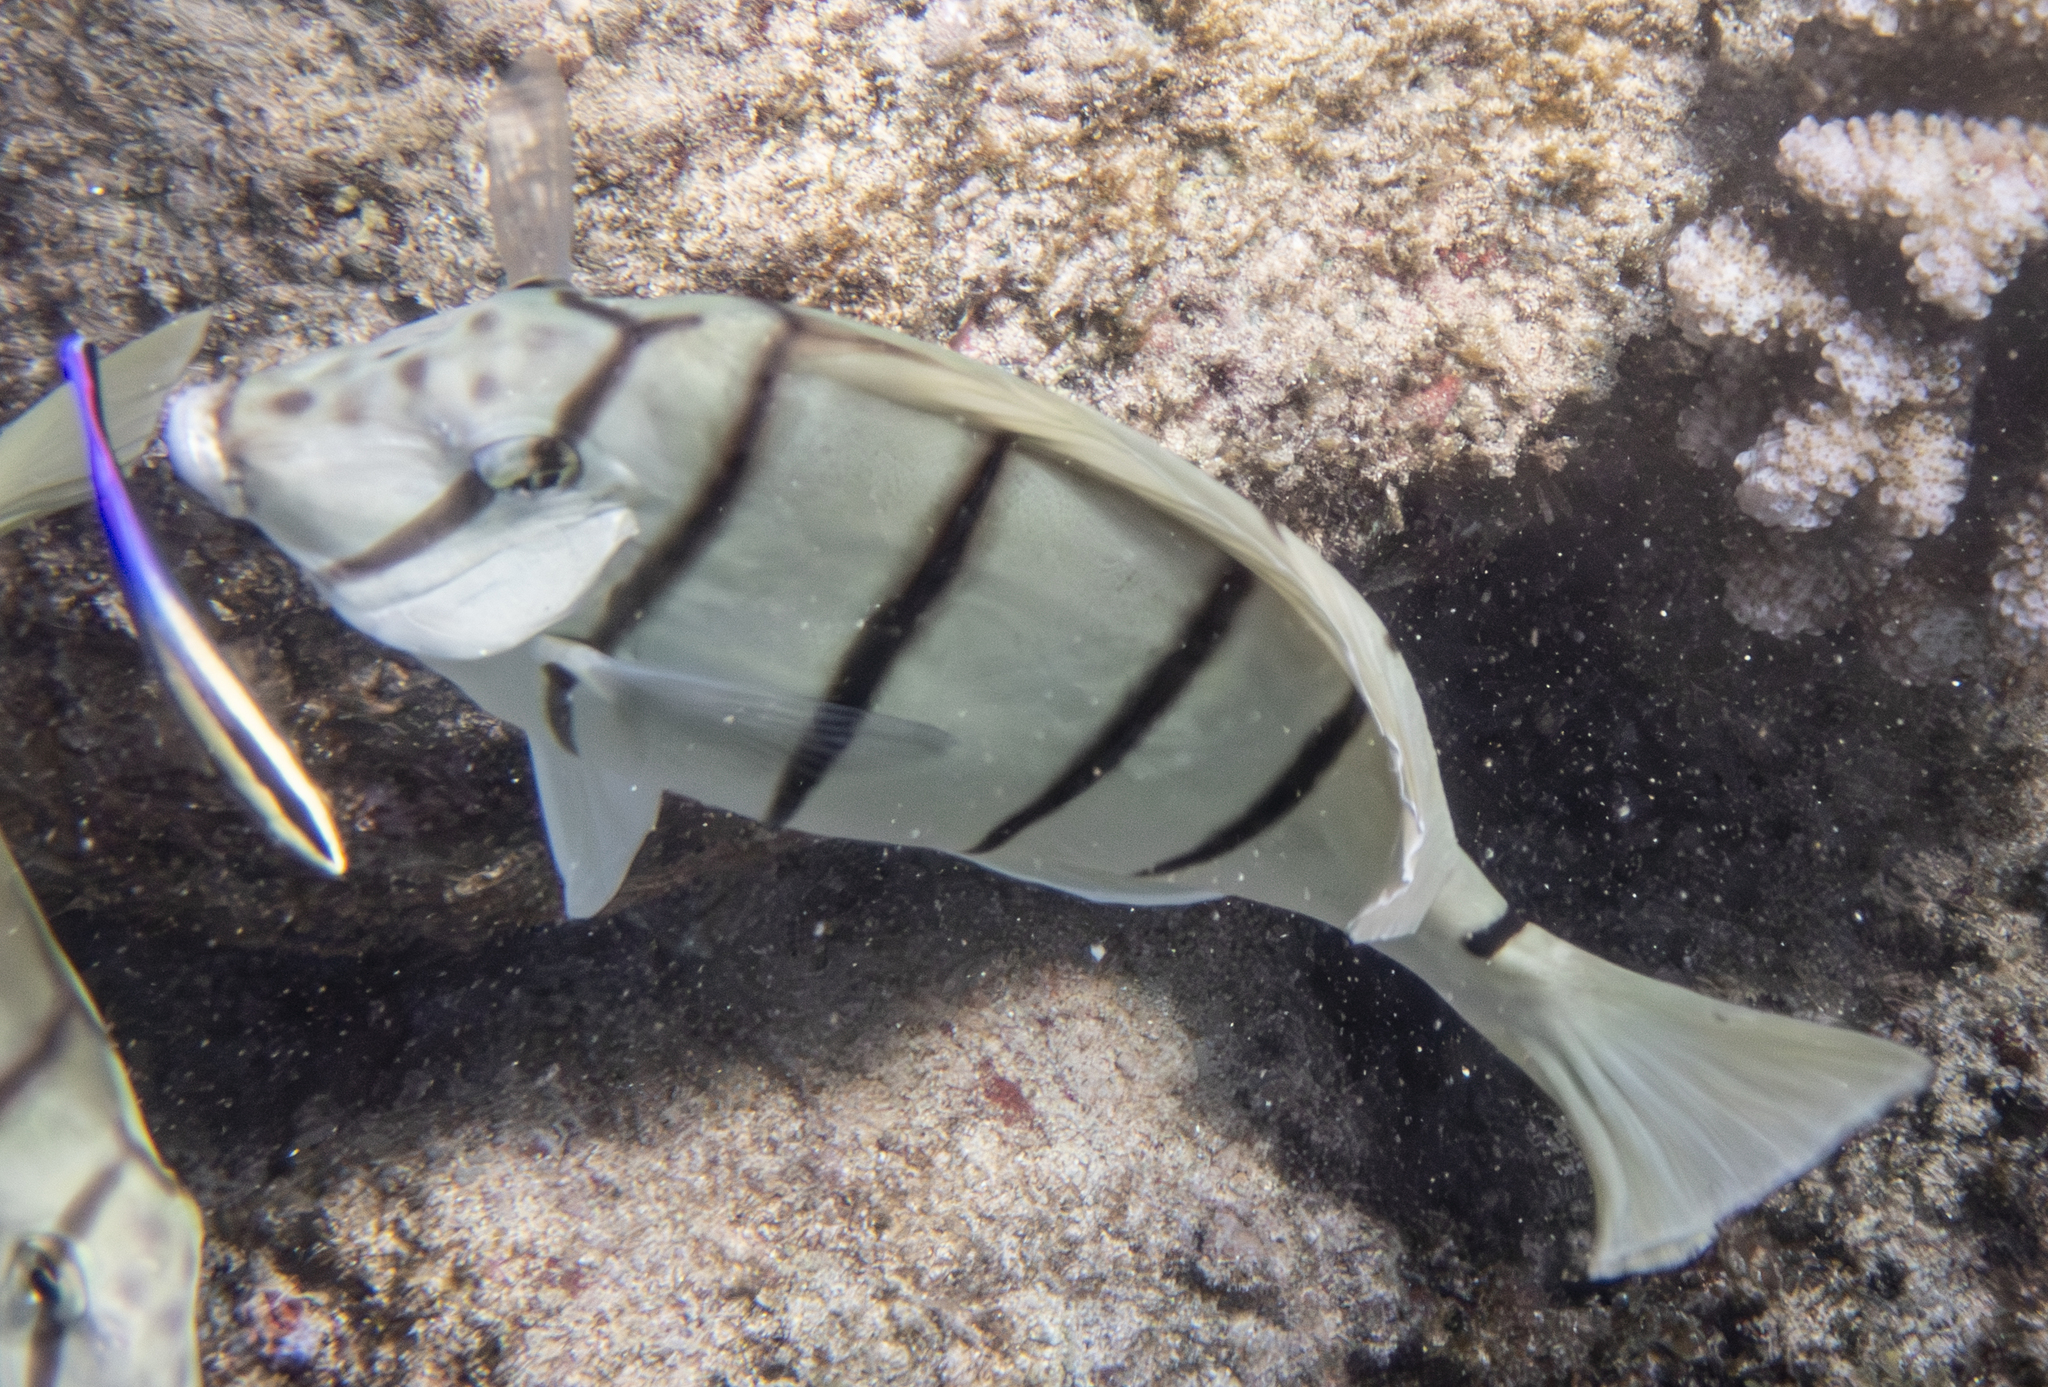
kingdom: Animalia
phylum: Chordata
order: Perciformes
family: Acanthuridae
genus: Acanthurus
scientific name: Acanthurus triostegus
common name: Convict surgeonfish
